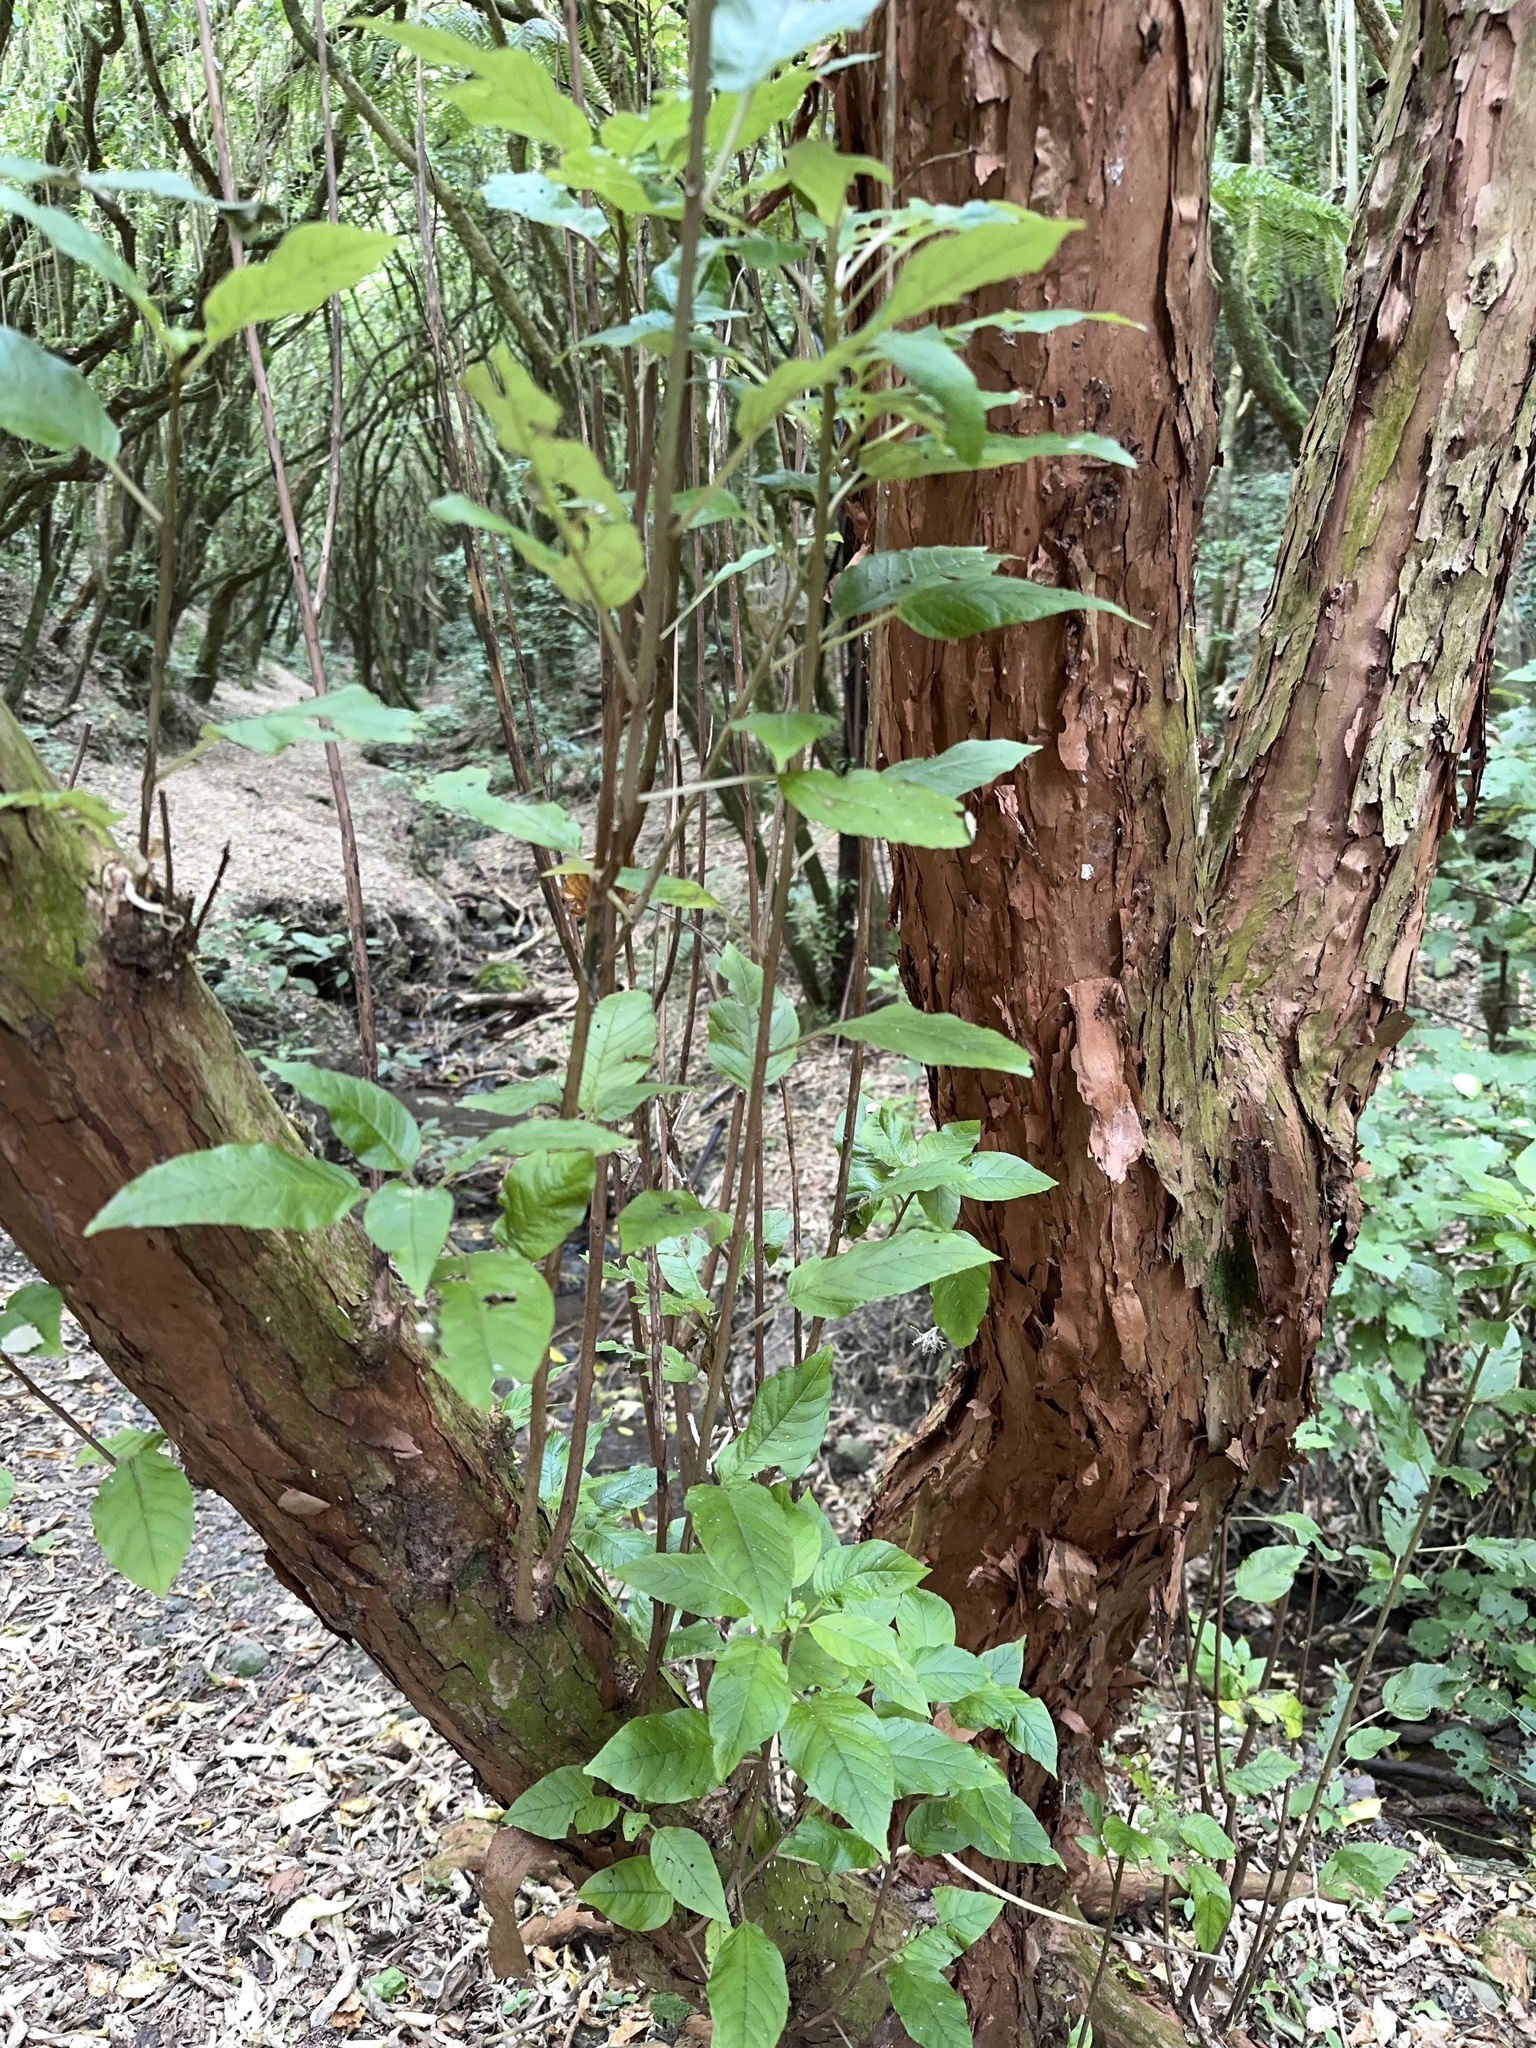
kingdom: Plantae
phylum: Tracheophyta
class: Magnoliopsida
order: Myrtales
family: Onagraceae
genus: Fuchsia
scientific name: Fuchsia excorticata
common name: Tree fuchsia
